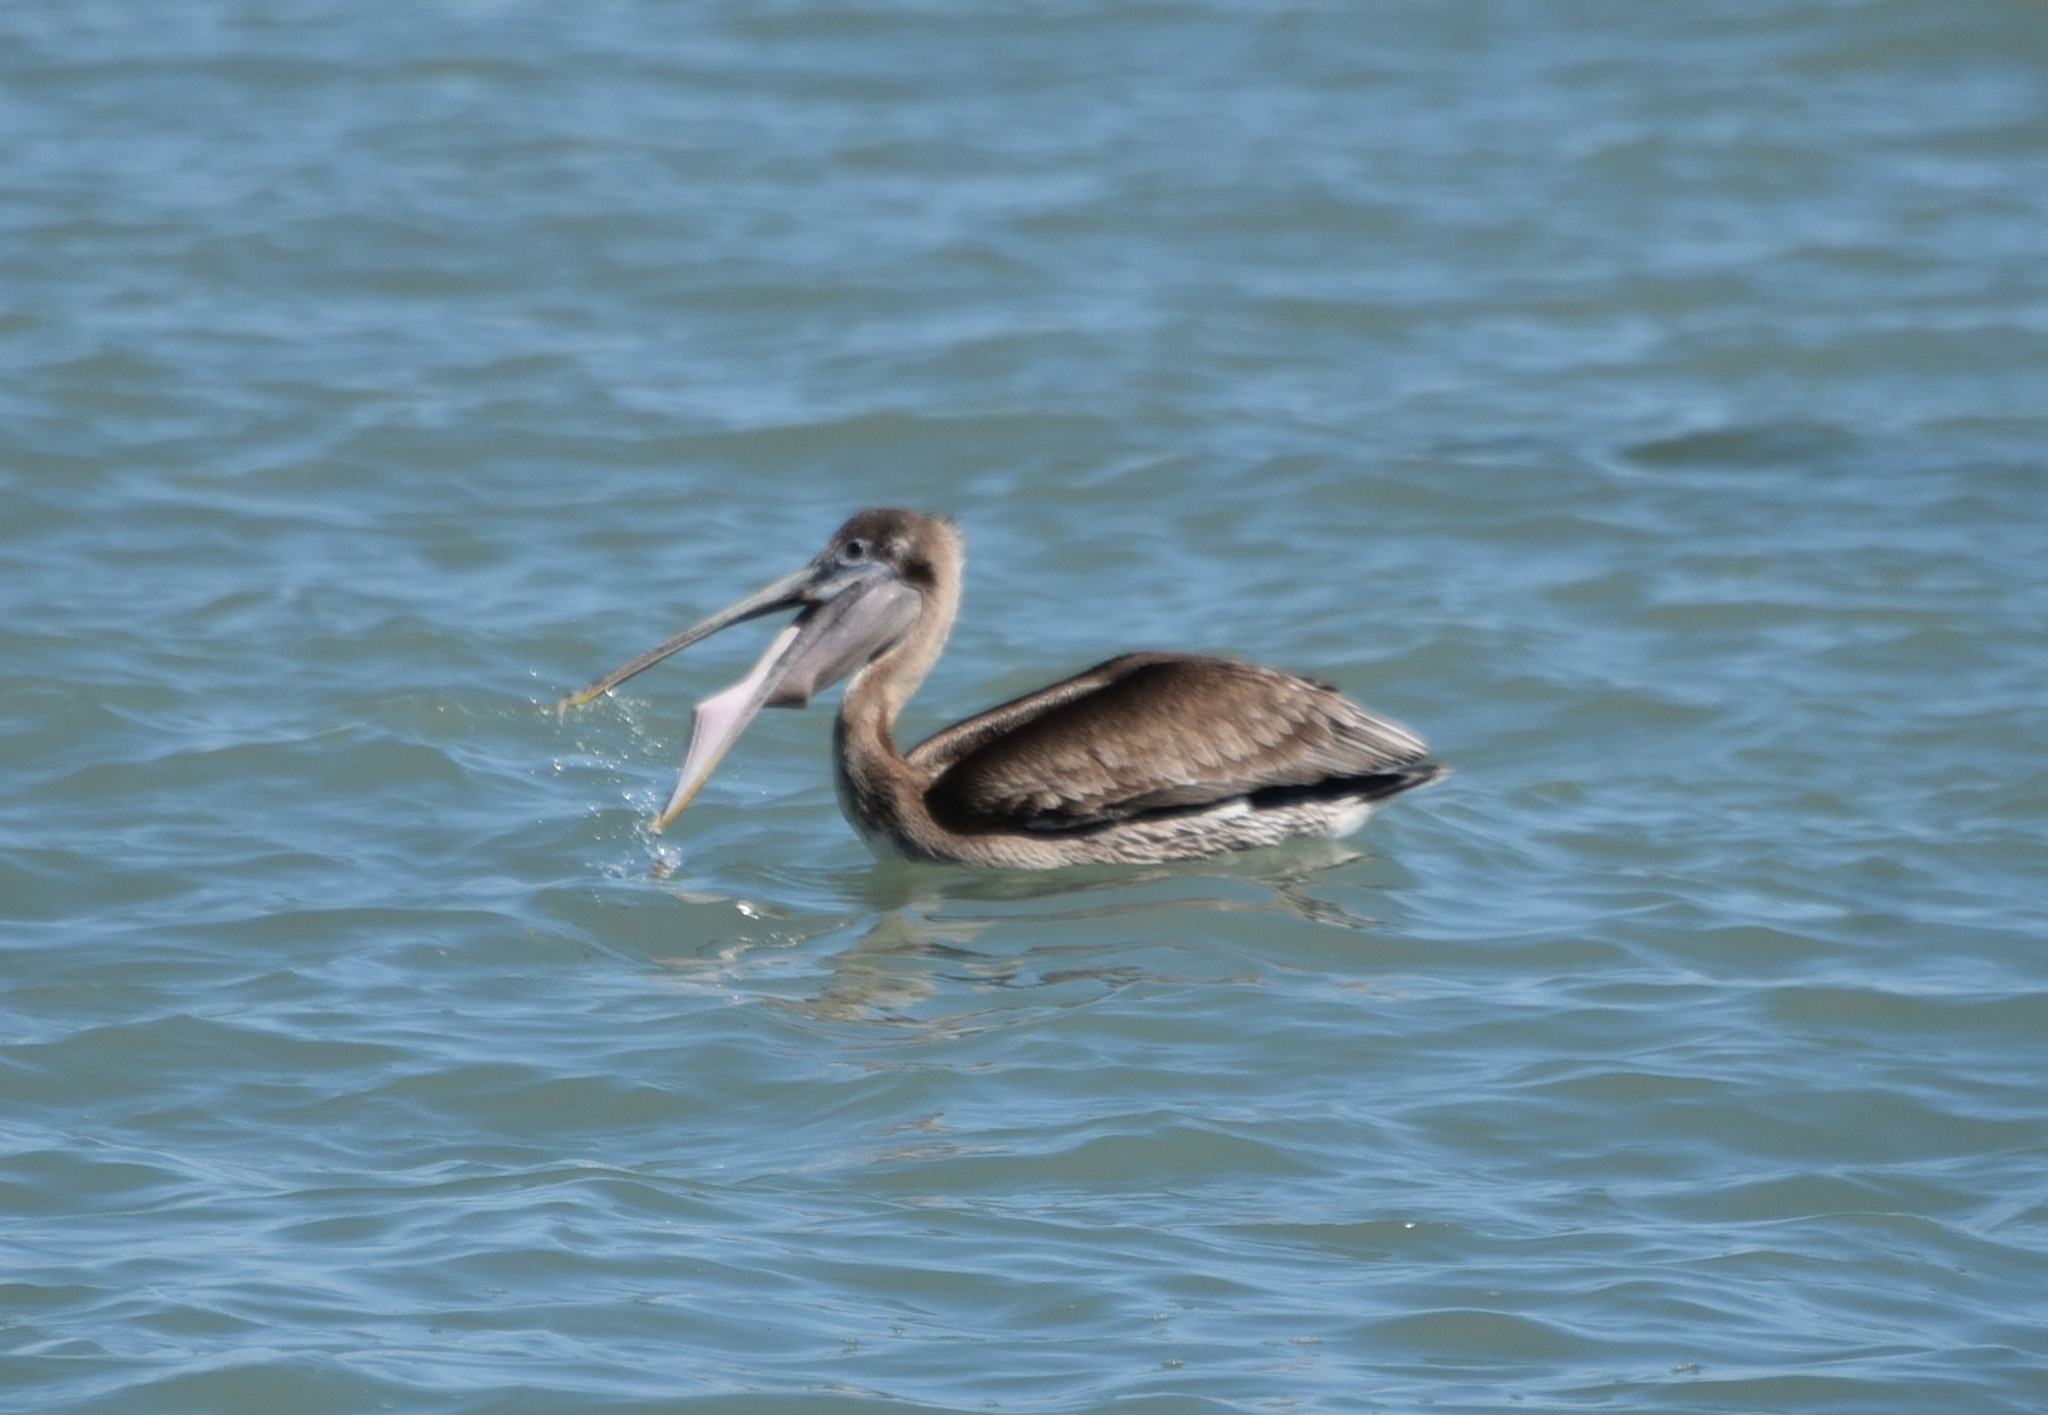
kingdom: Animalia
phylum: Chordata
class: Aves
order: Pelecaniformes
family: Pelecanidae
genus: Pelecanus
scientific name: Pelecanus occidentalis
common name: Brown pelican
